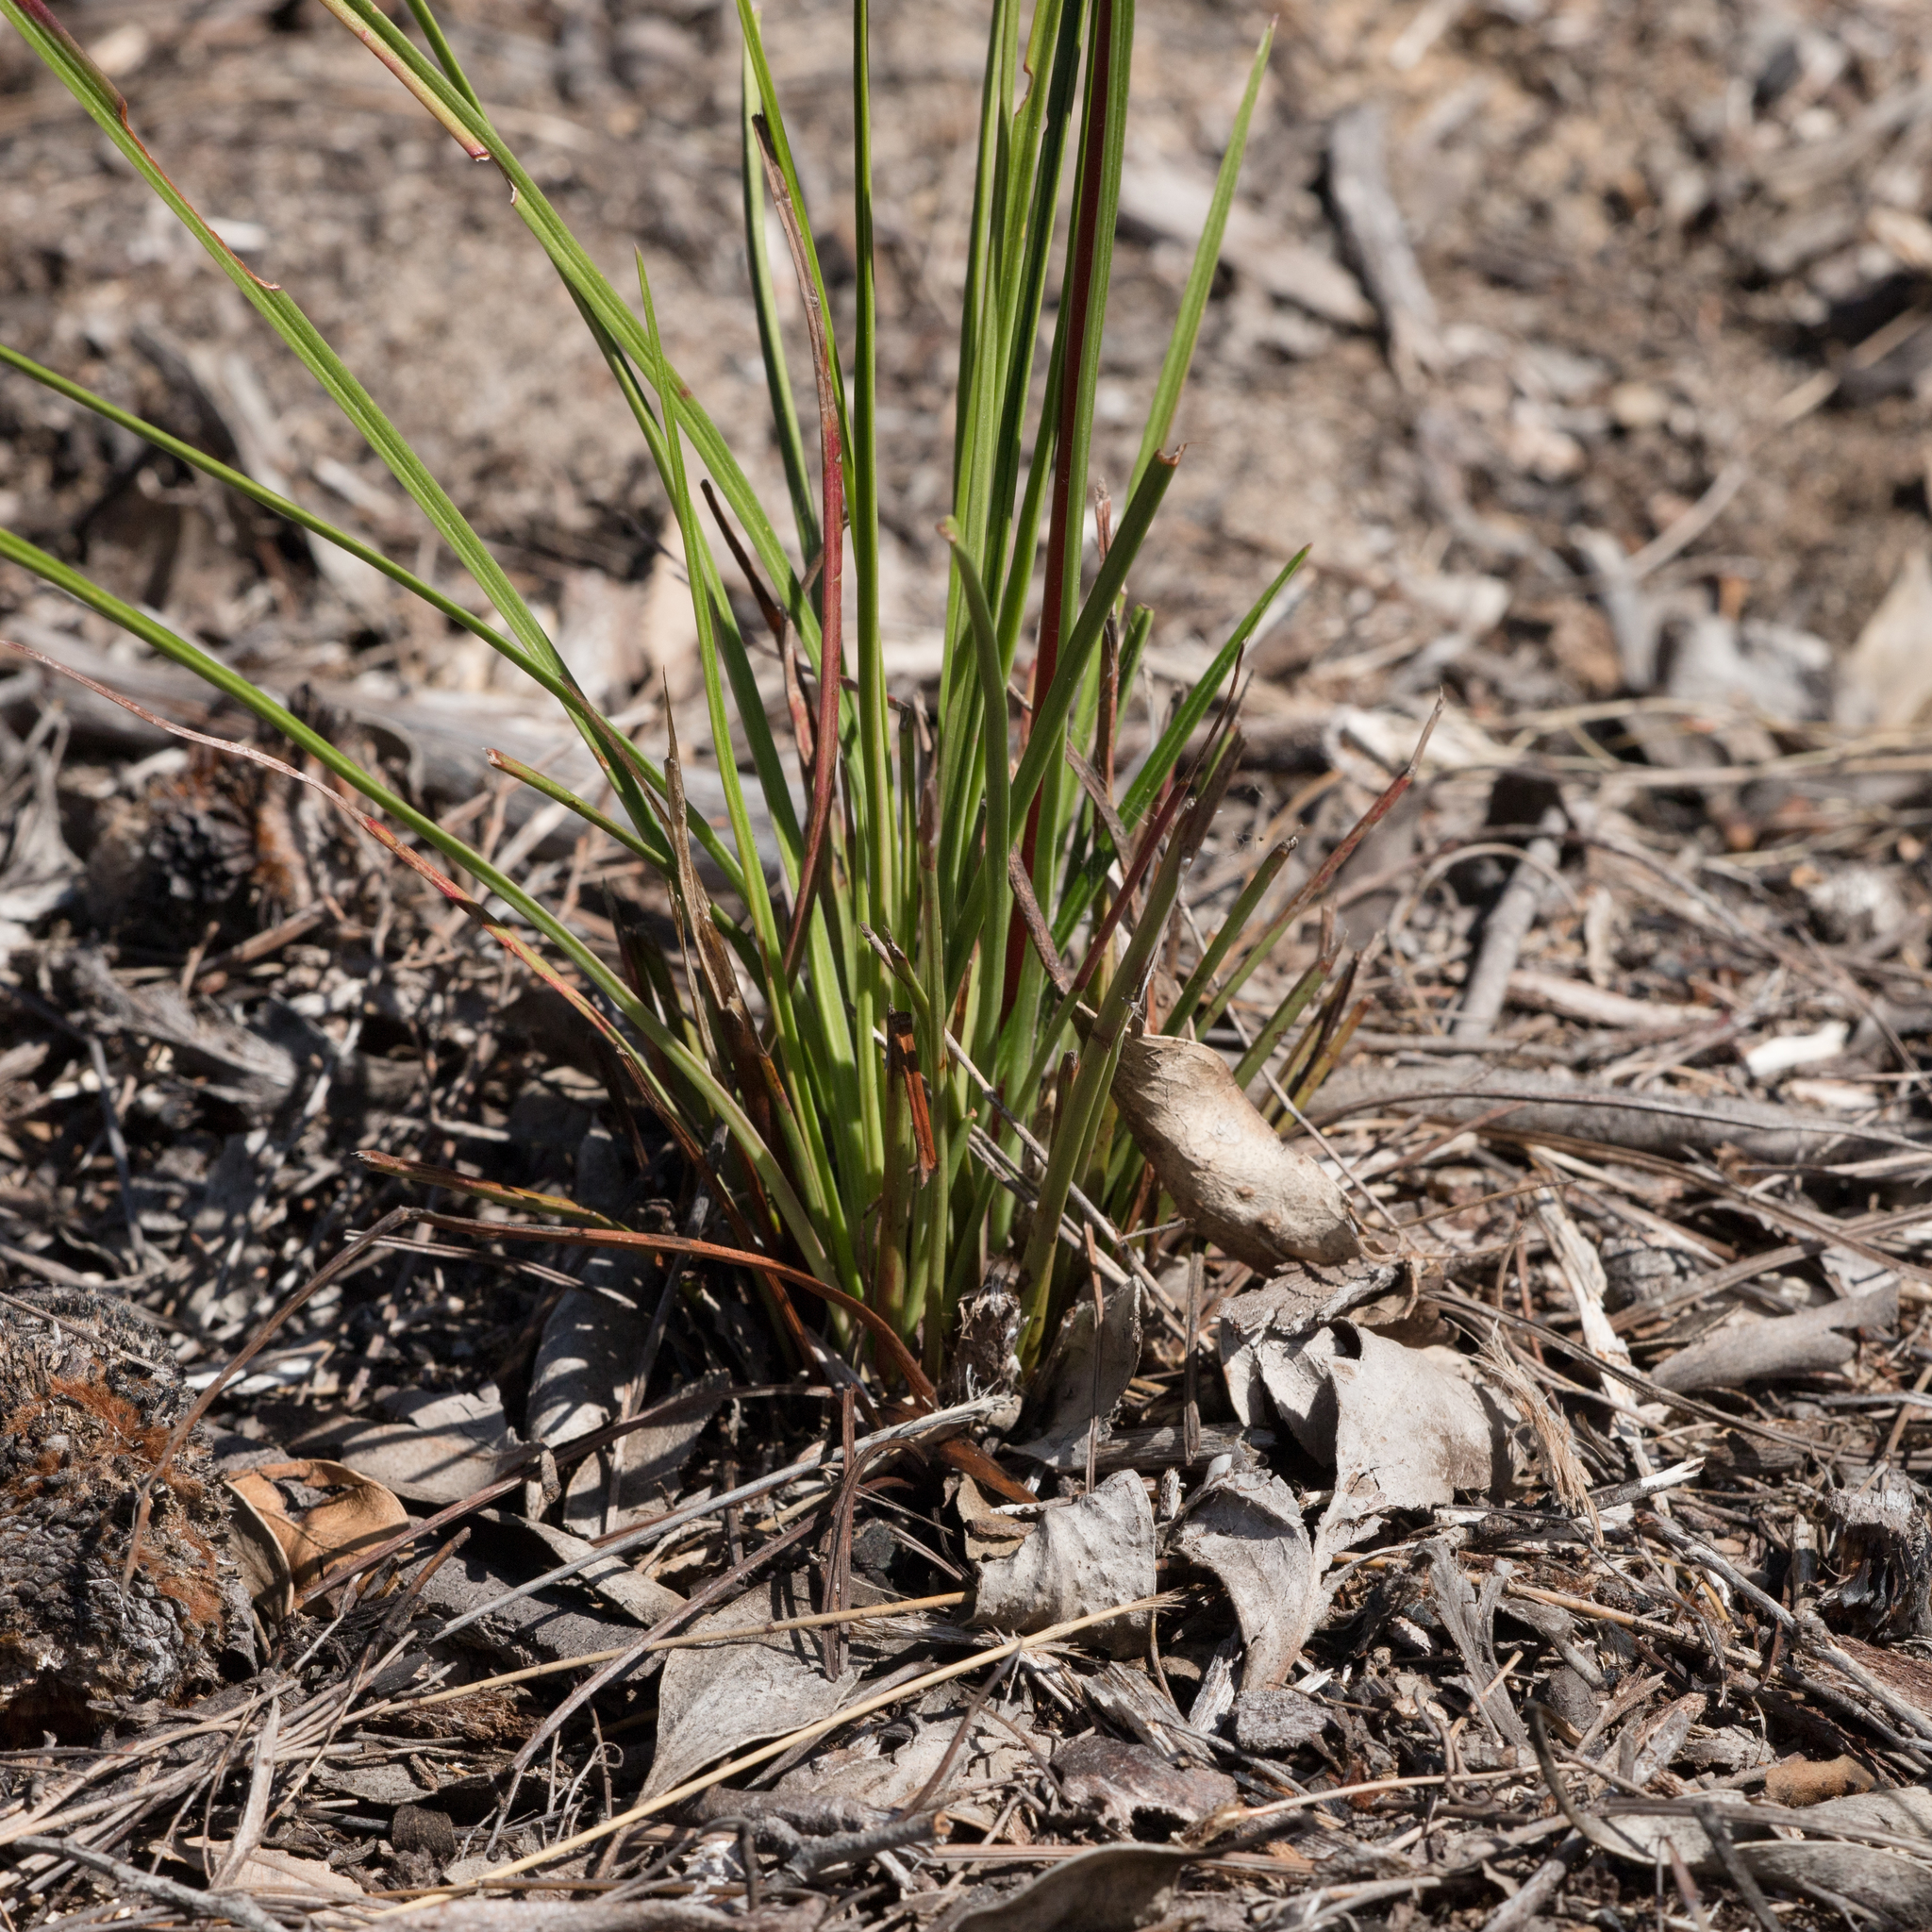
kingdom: Plantae
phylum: Tracheophyta
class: Magnoliopsida
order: Asterales
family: Stylidiaceae
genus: Stylidium
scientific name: Stylidium armeria
